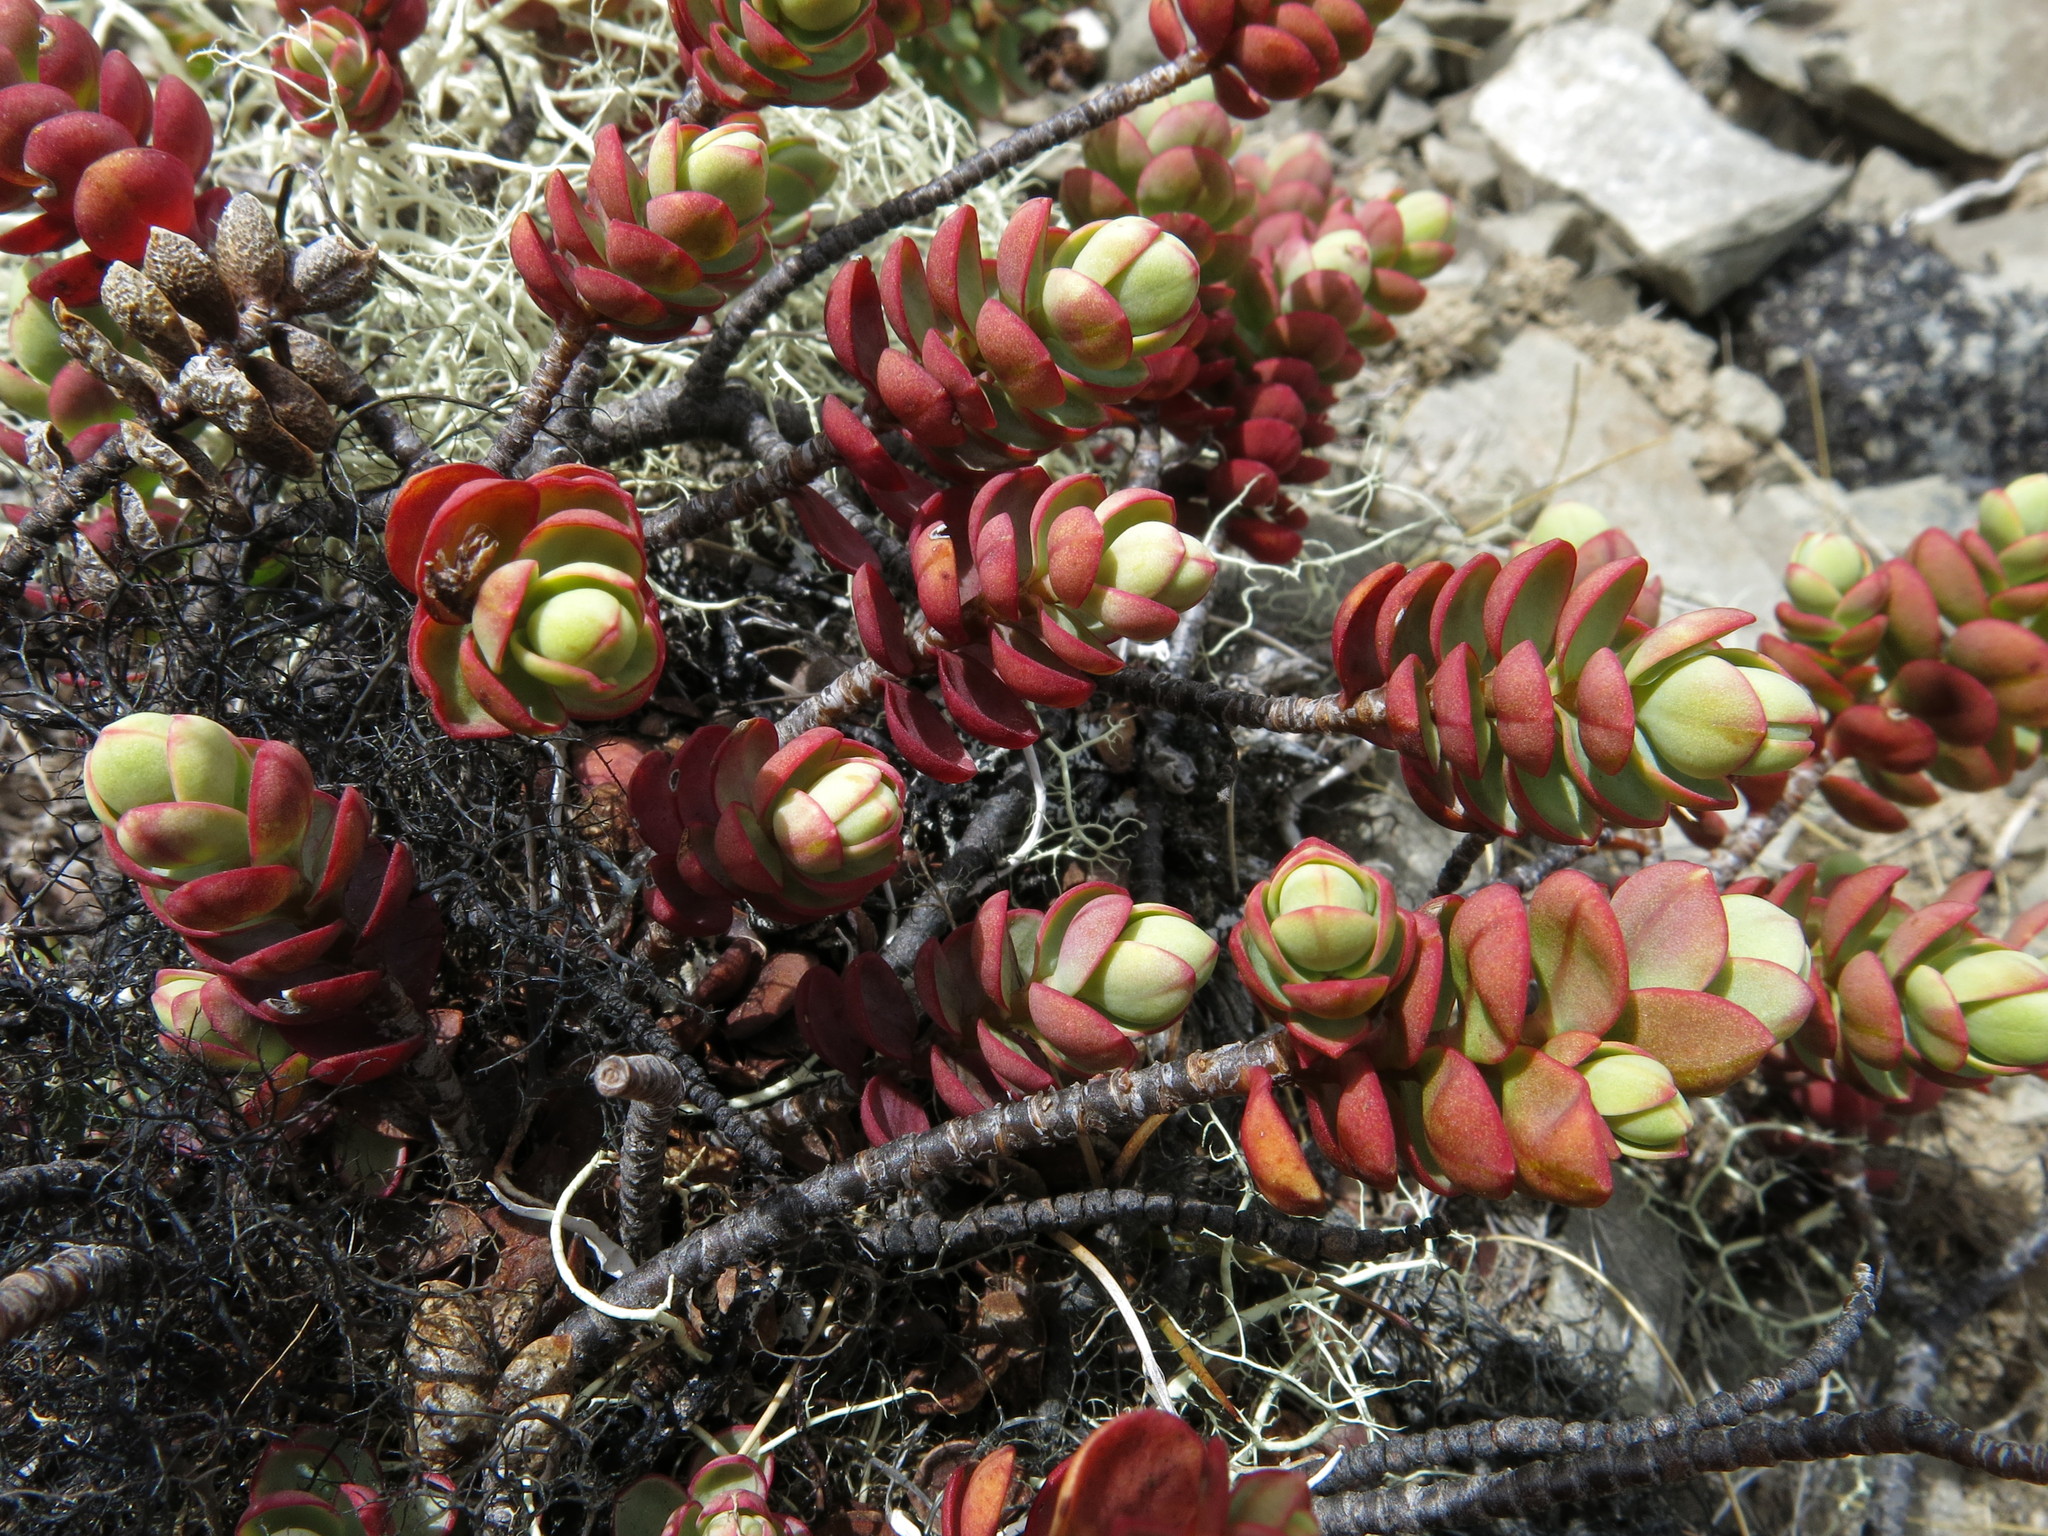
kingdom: Plantae
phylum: Tracheophyta
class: Magnoliopsida
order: Lamiales
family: Plantaginaceae
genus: Veronica
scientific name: Veronica pinguifolia
